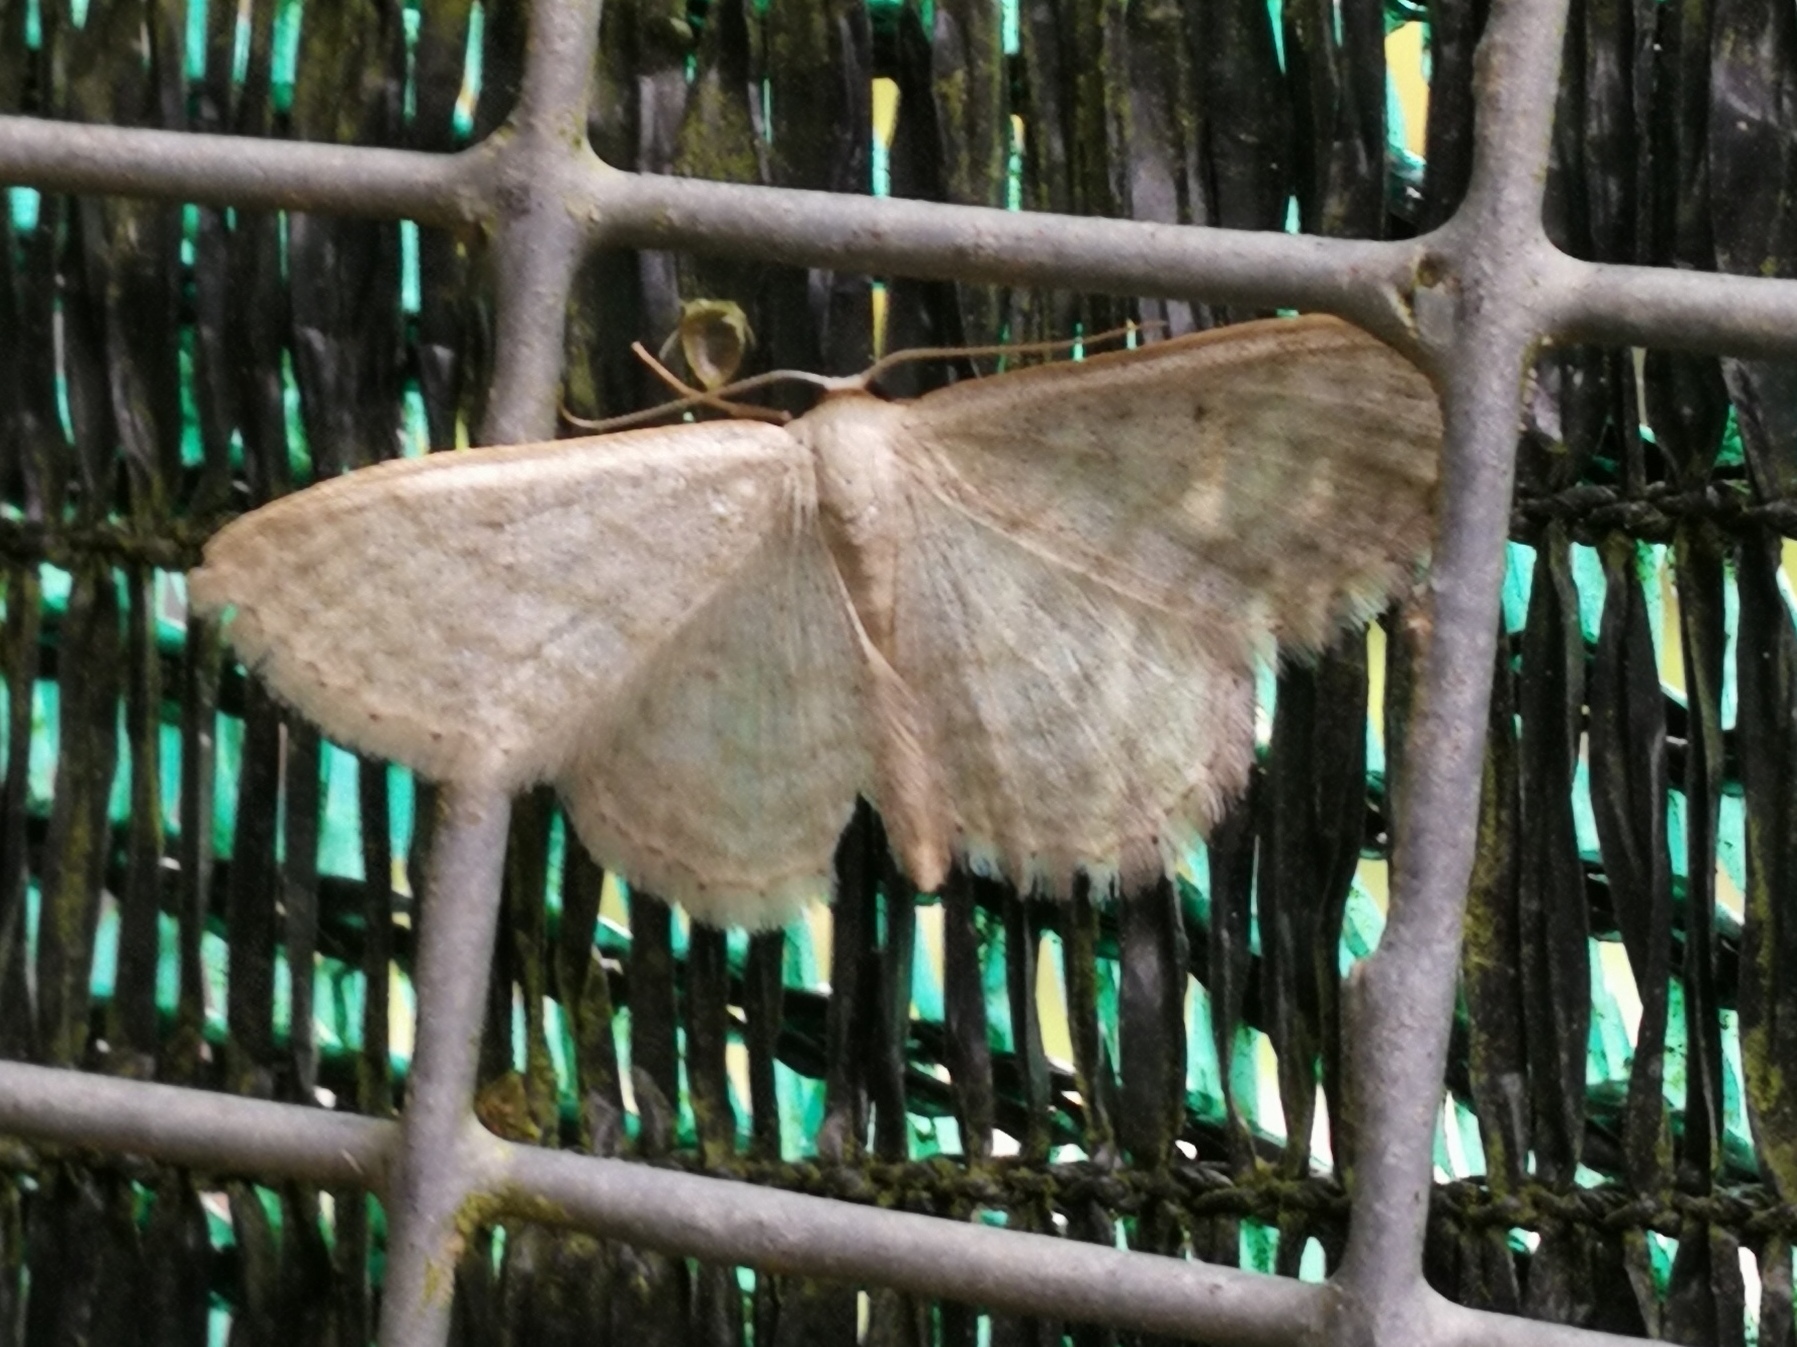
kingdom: Animalia
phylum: Arthropoda
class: Insecta
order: Lepidoptera
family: Geometridae
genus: Idaea
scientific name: Idaea subsericeata
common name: Satin wave
